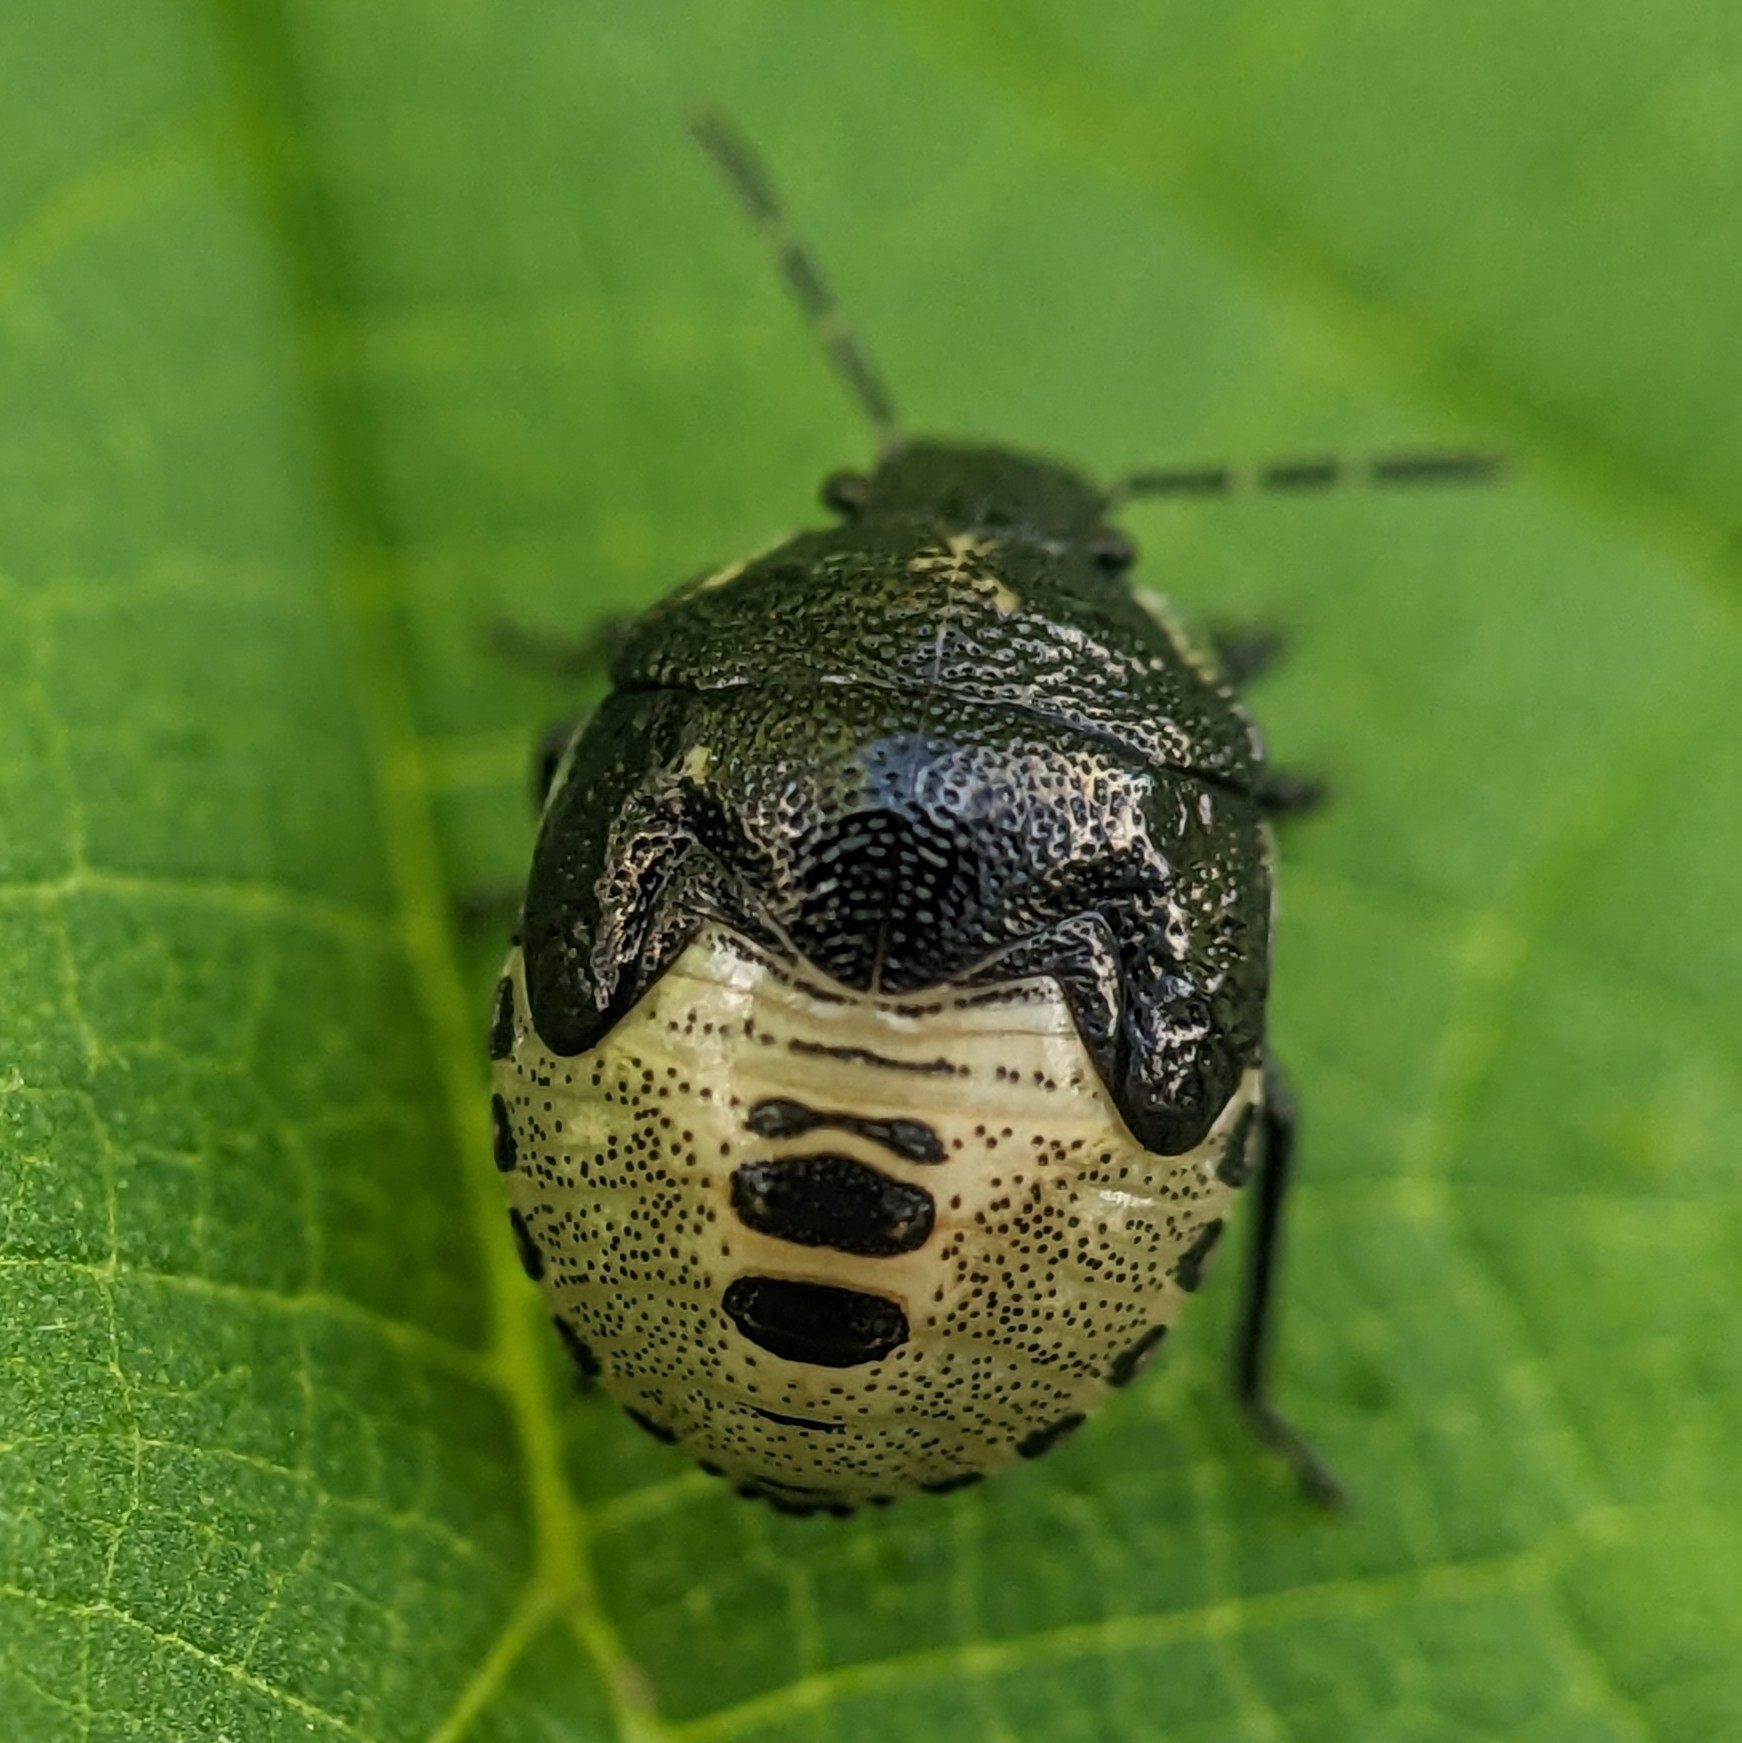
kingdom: Animalia
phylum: Arthropoda
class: Insecta
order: Hemiptera
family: Pentatomidae
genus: Eysarcoris
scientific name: Eysarcoris venustissimus
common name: Woundwort shieldbug
